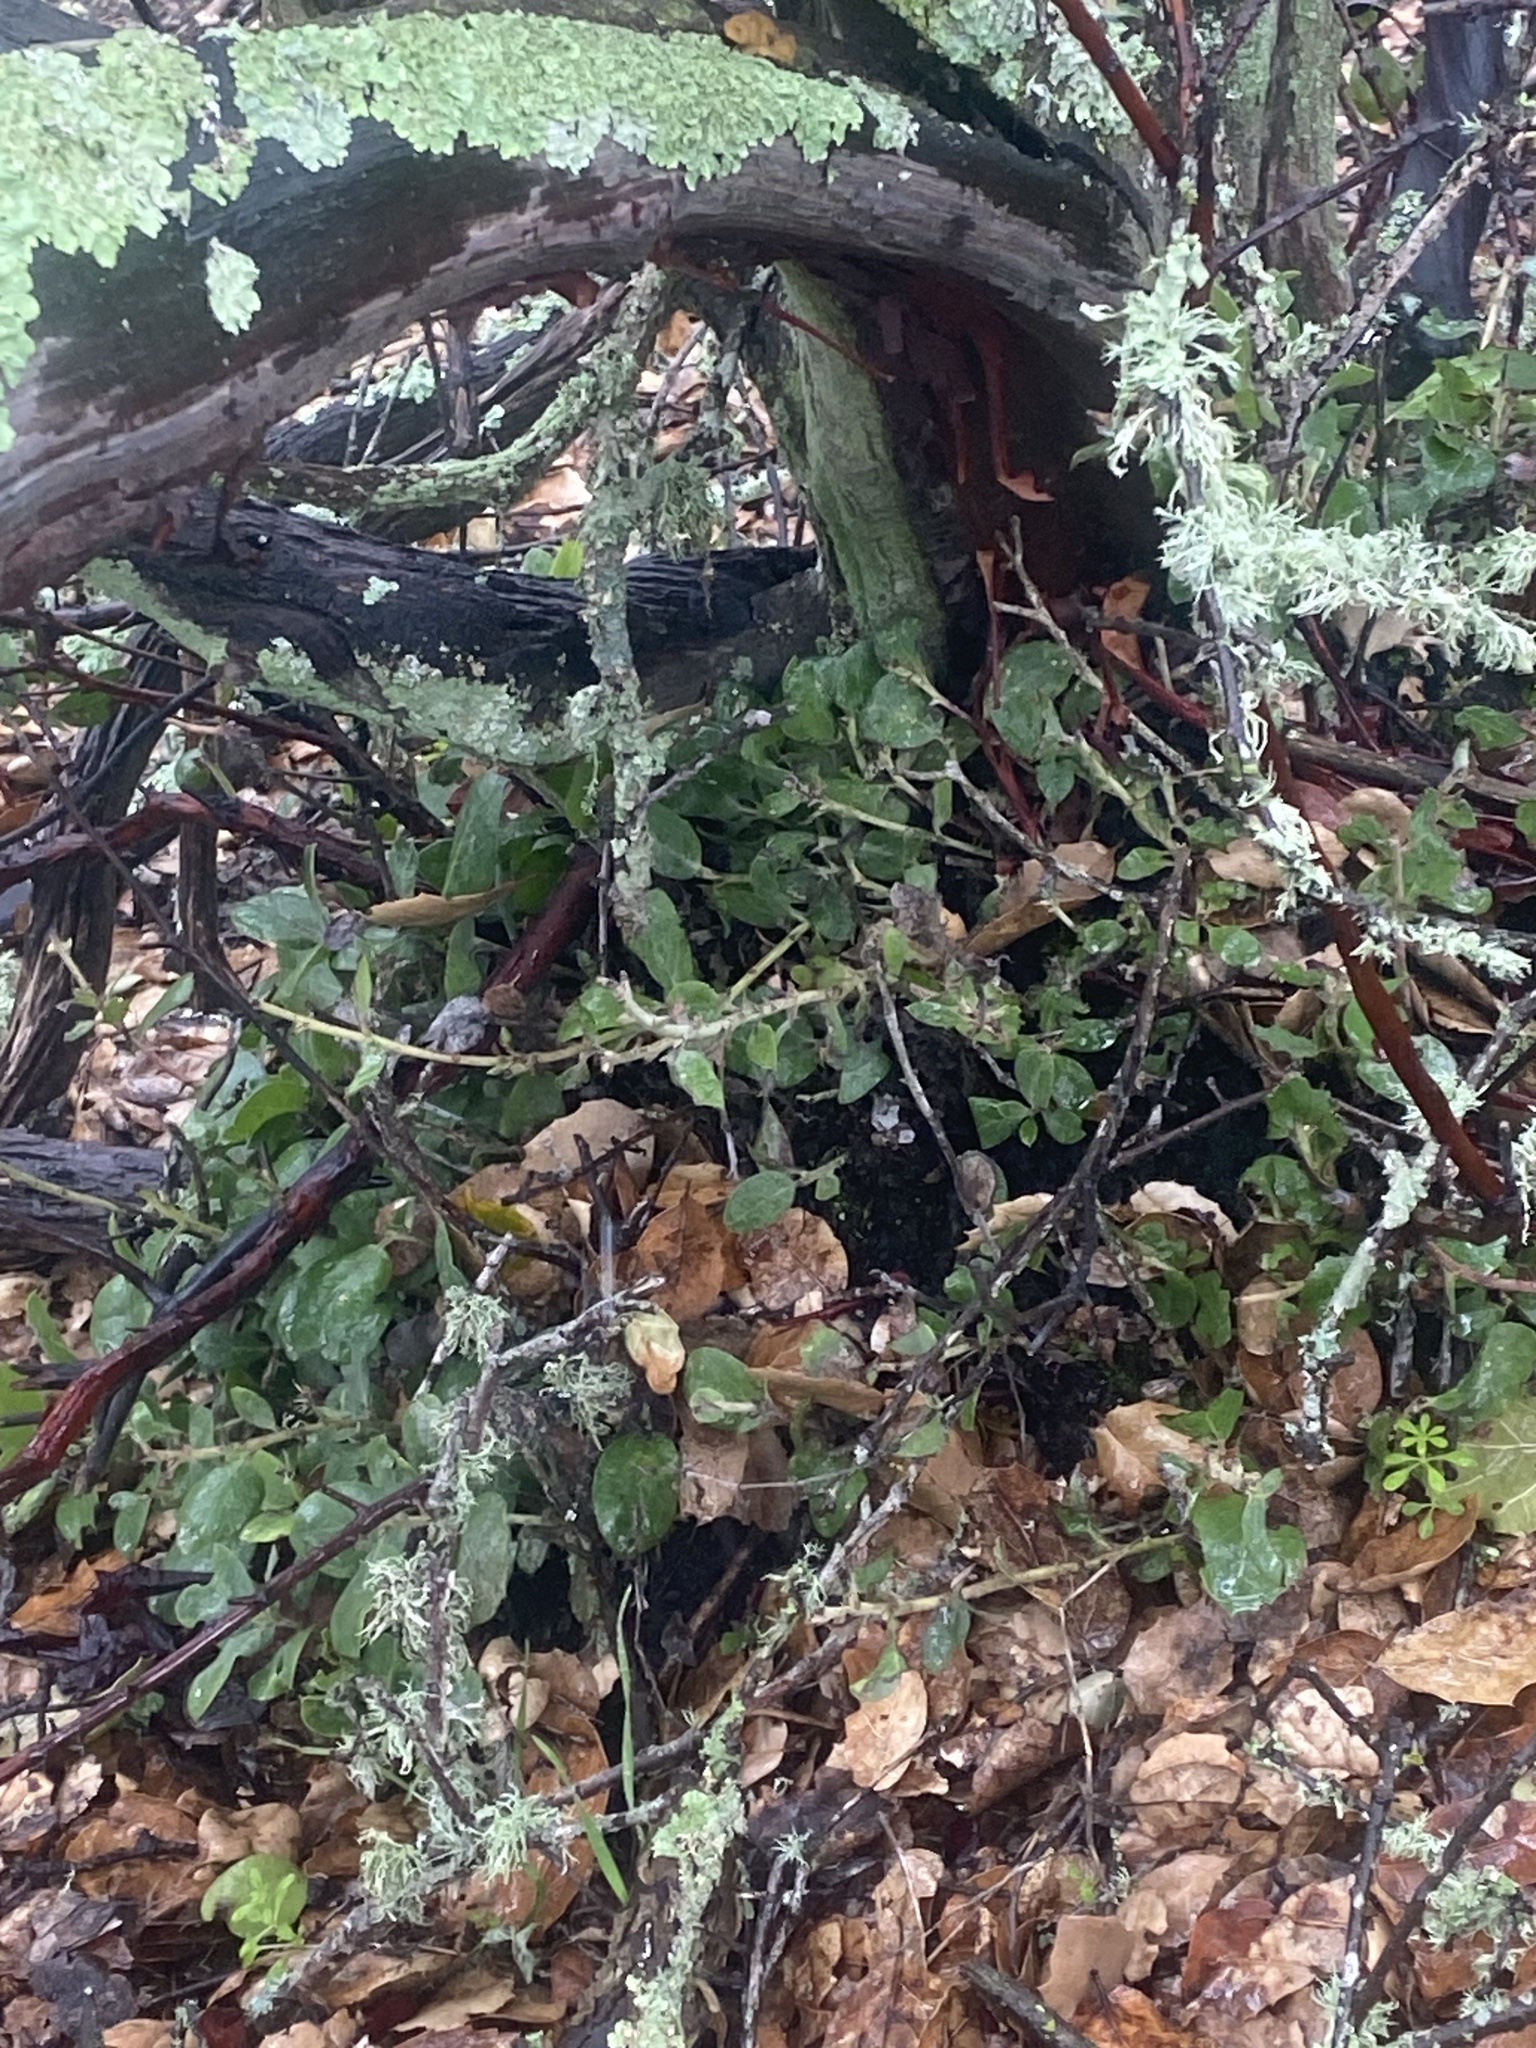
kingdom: Plantae
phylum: Tracheophyta
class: Magnoliopsida
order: Ericales
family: Ericaceae
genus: Arctostaphylos
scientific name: Arctostaphylos crustacea
